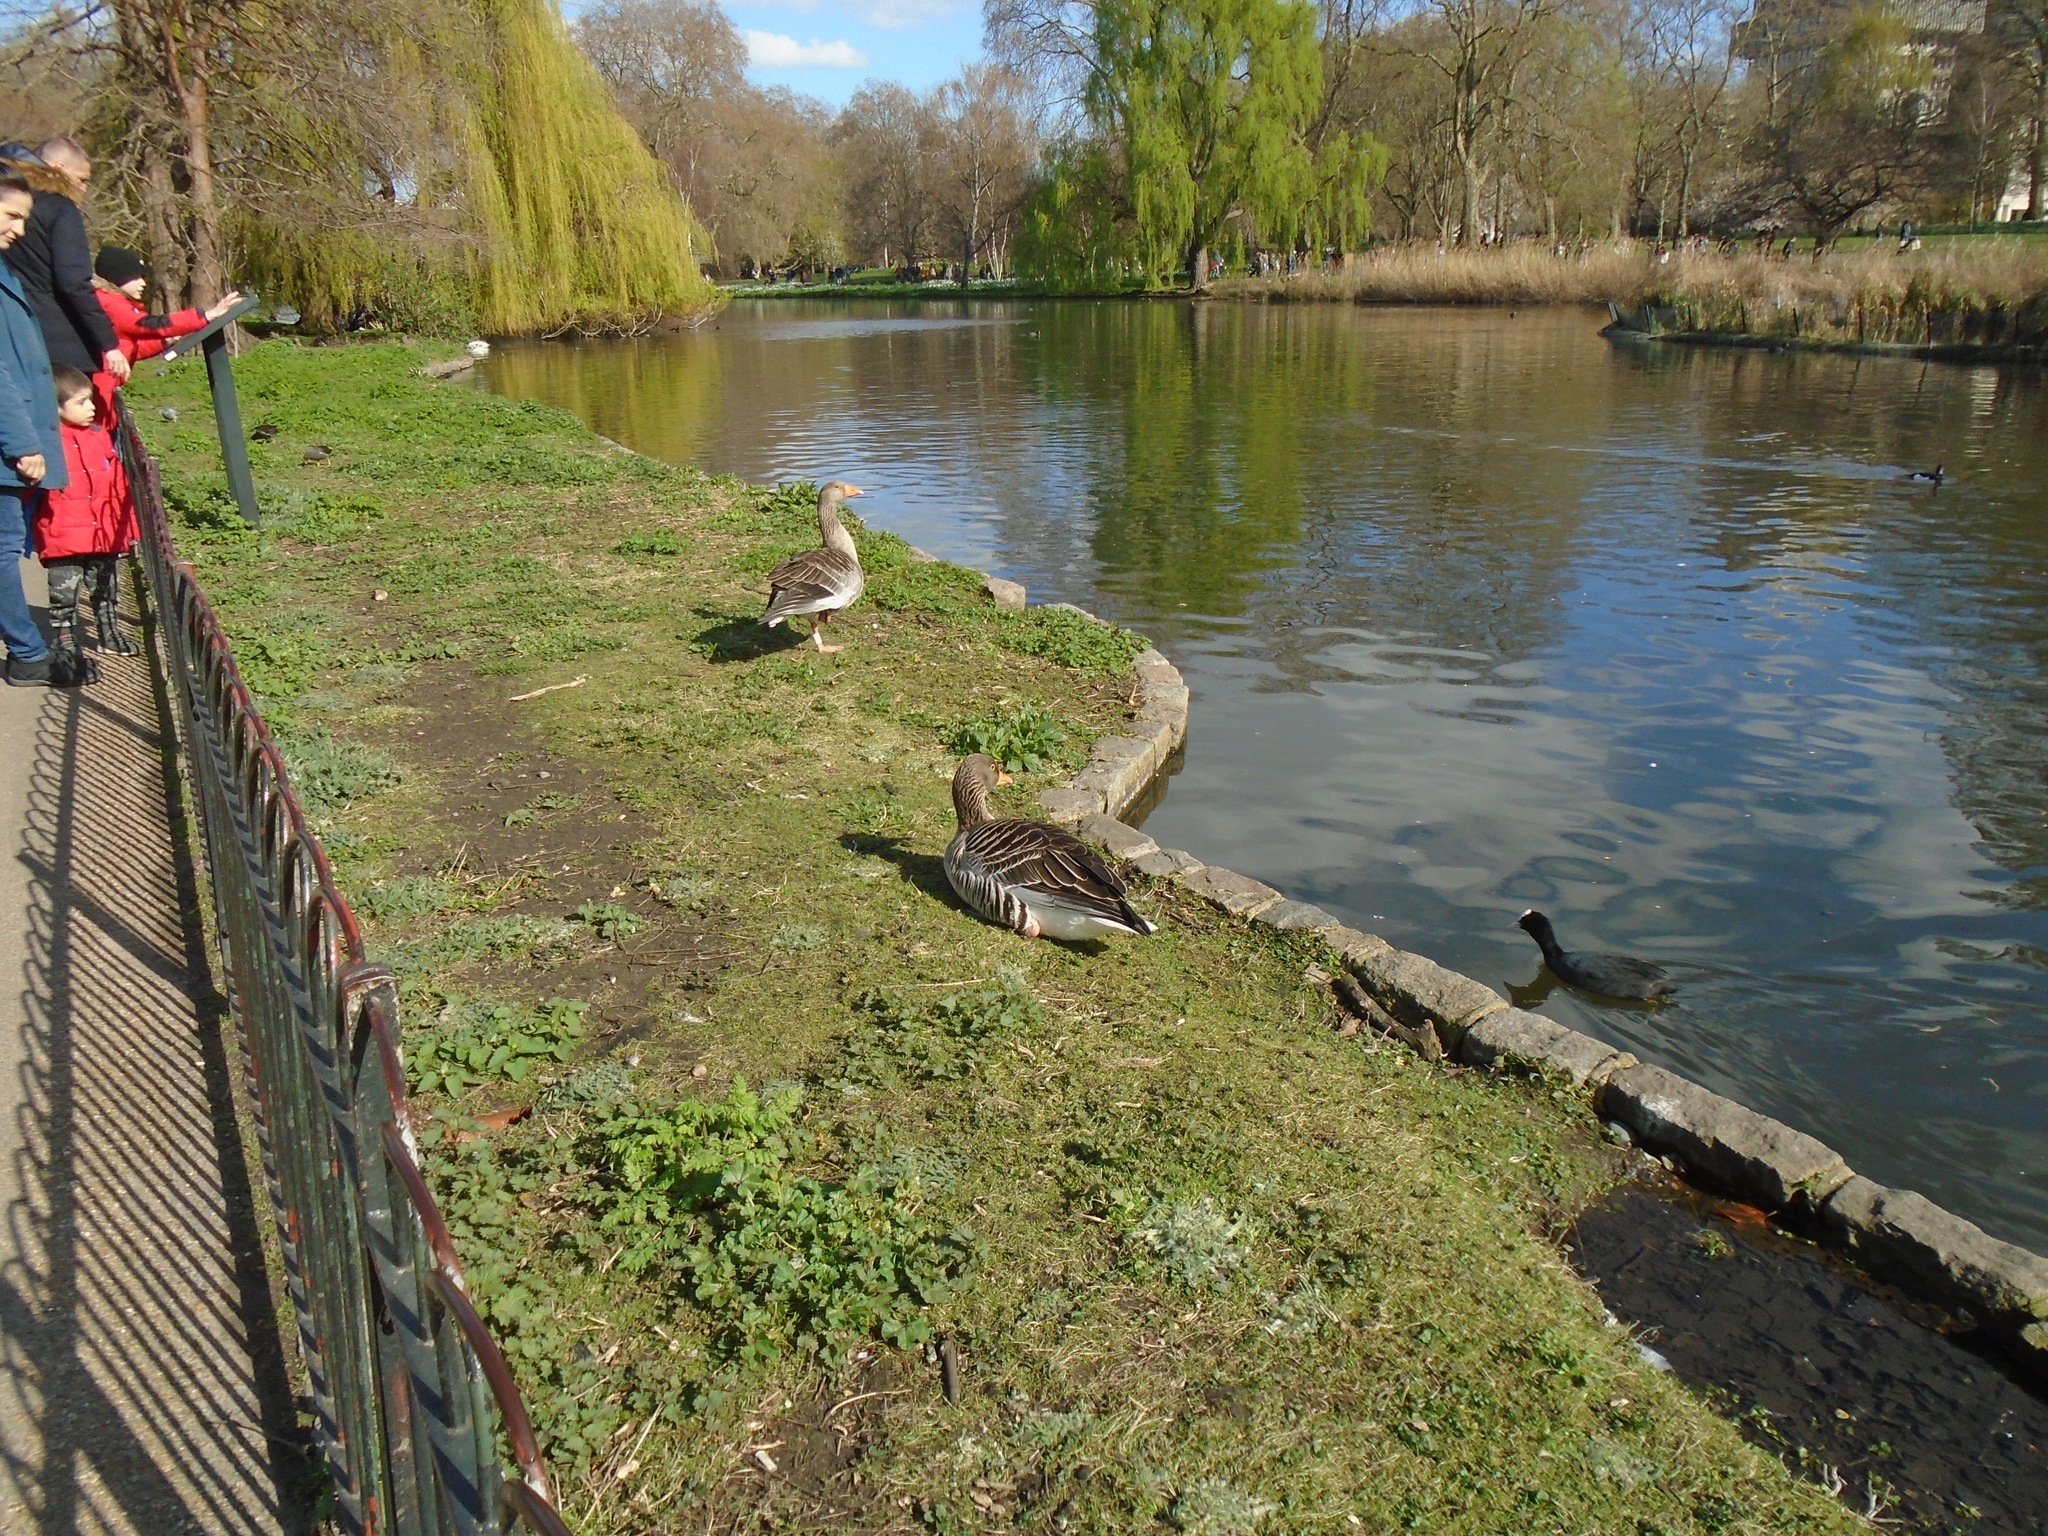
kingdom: Animalia
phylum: Chordata
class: Aves
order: Anseriformes
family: Anatidae
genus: Anser
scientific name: Anser anser
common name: Greylag goose
